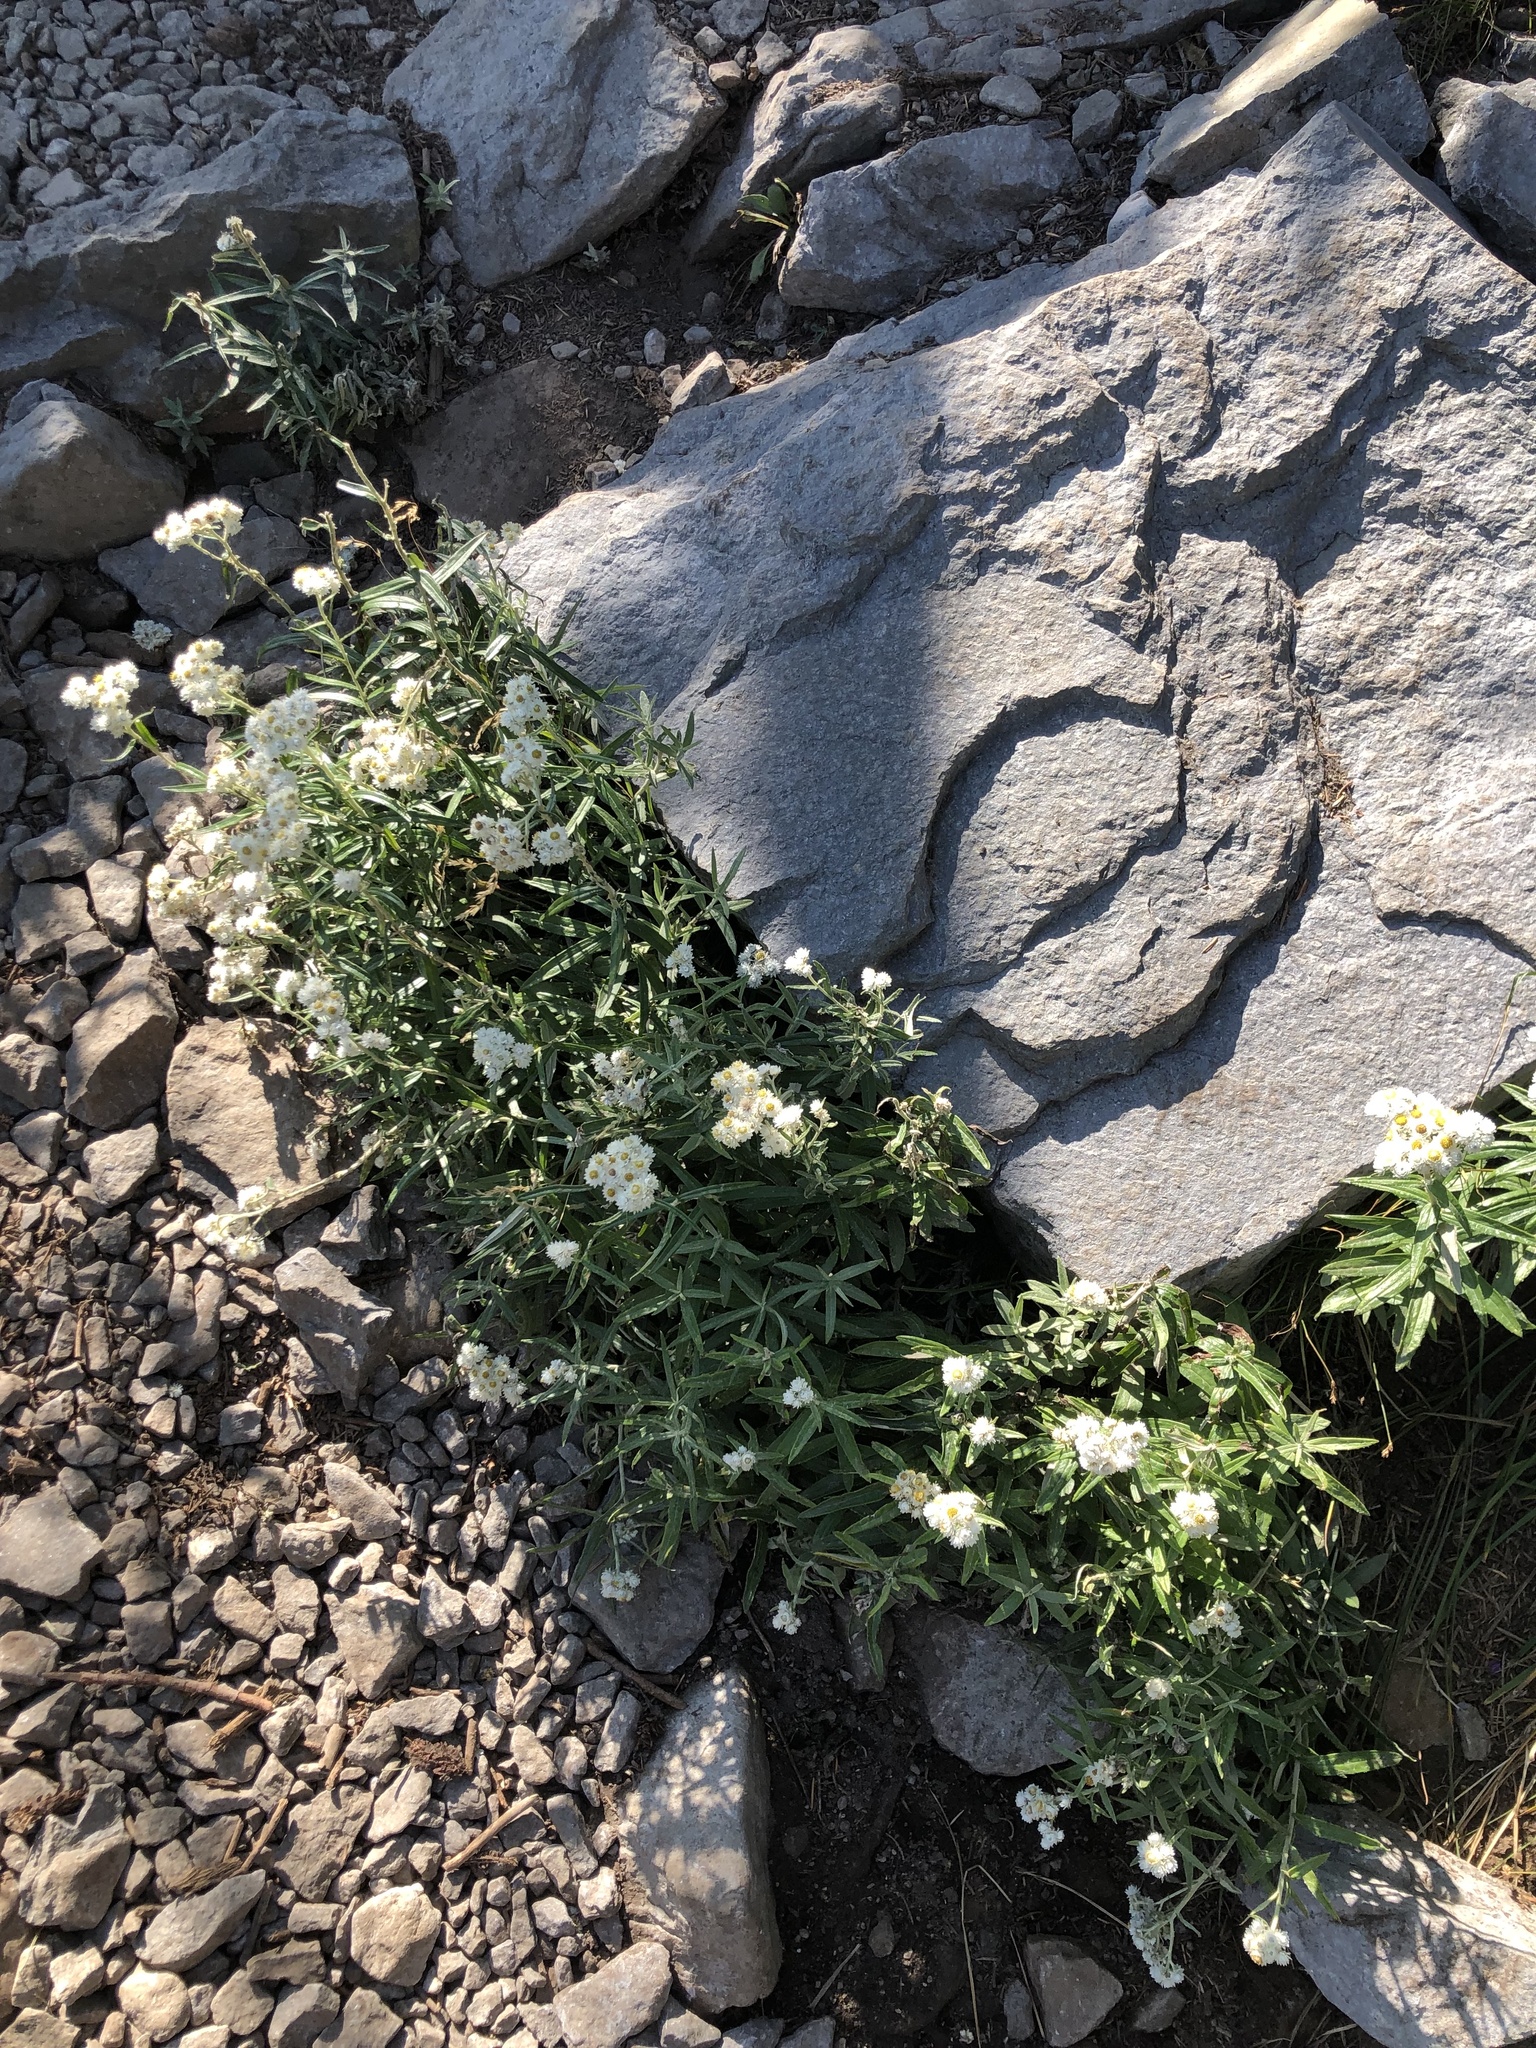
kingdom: Plantae
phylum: Tracheophyta
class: Magnoliopsida
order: Asterales
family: Asteraceae
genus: Anaphalis
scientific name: Anaphalis margaritacea
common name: Pearly everlasting
